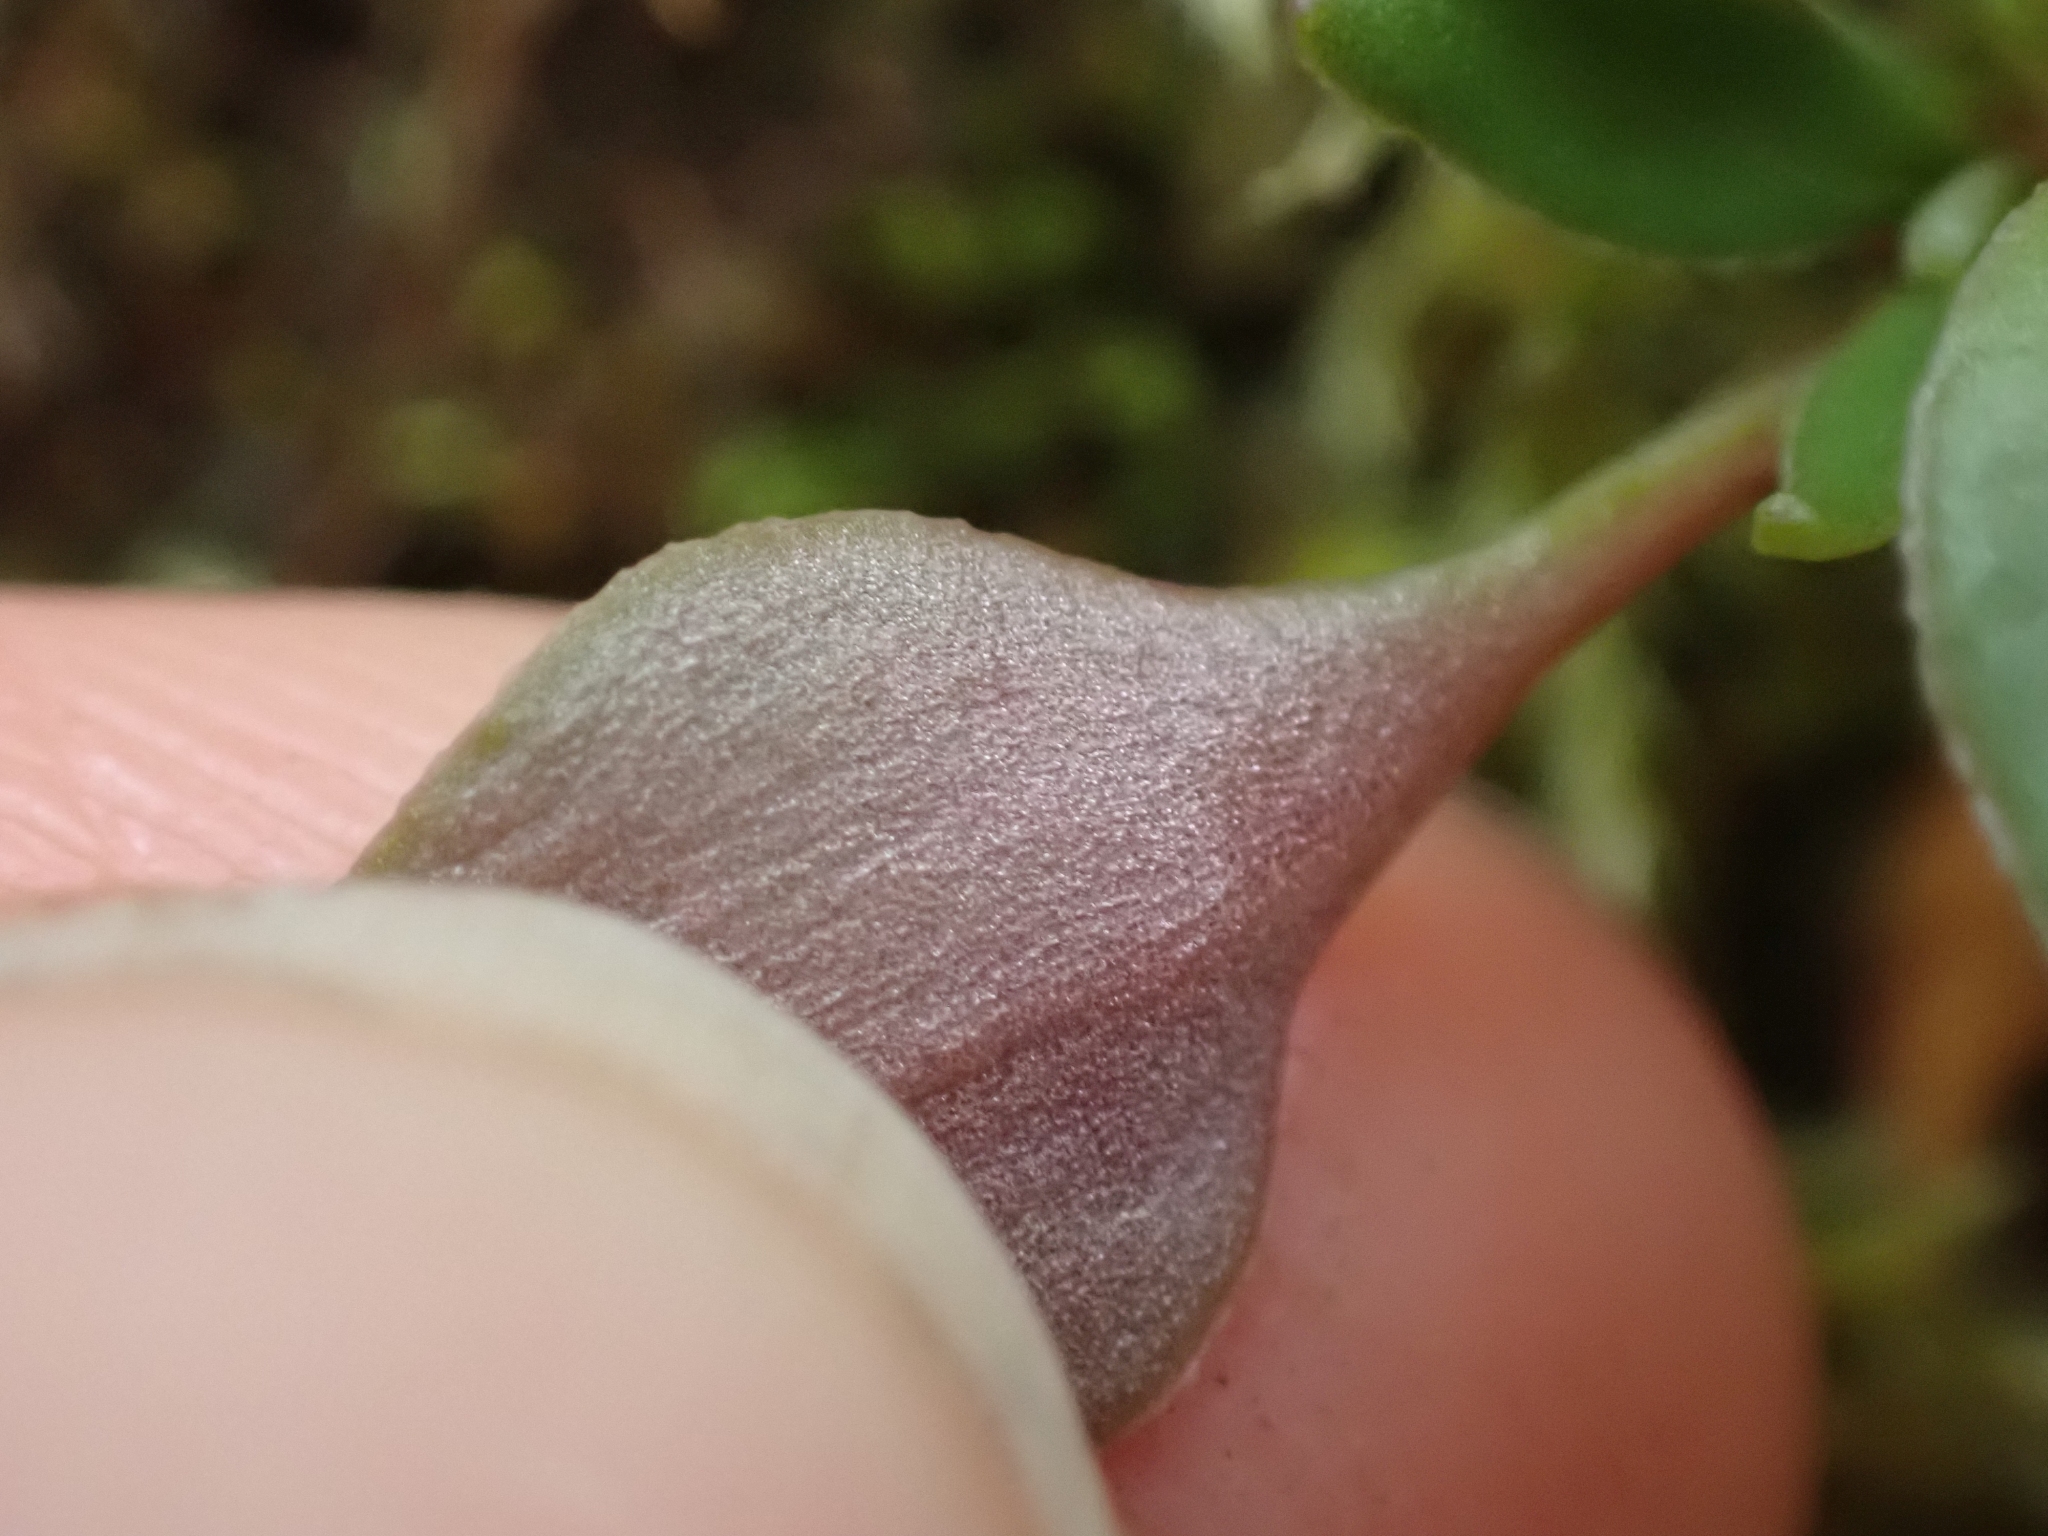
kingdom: Plantae
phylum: Tracheophyta
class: Magnoliopsida
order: Caryophyllales
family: Montiaceae
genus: Montia
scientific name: Montia parvifolia
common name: Small-leaved blinks
